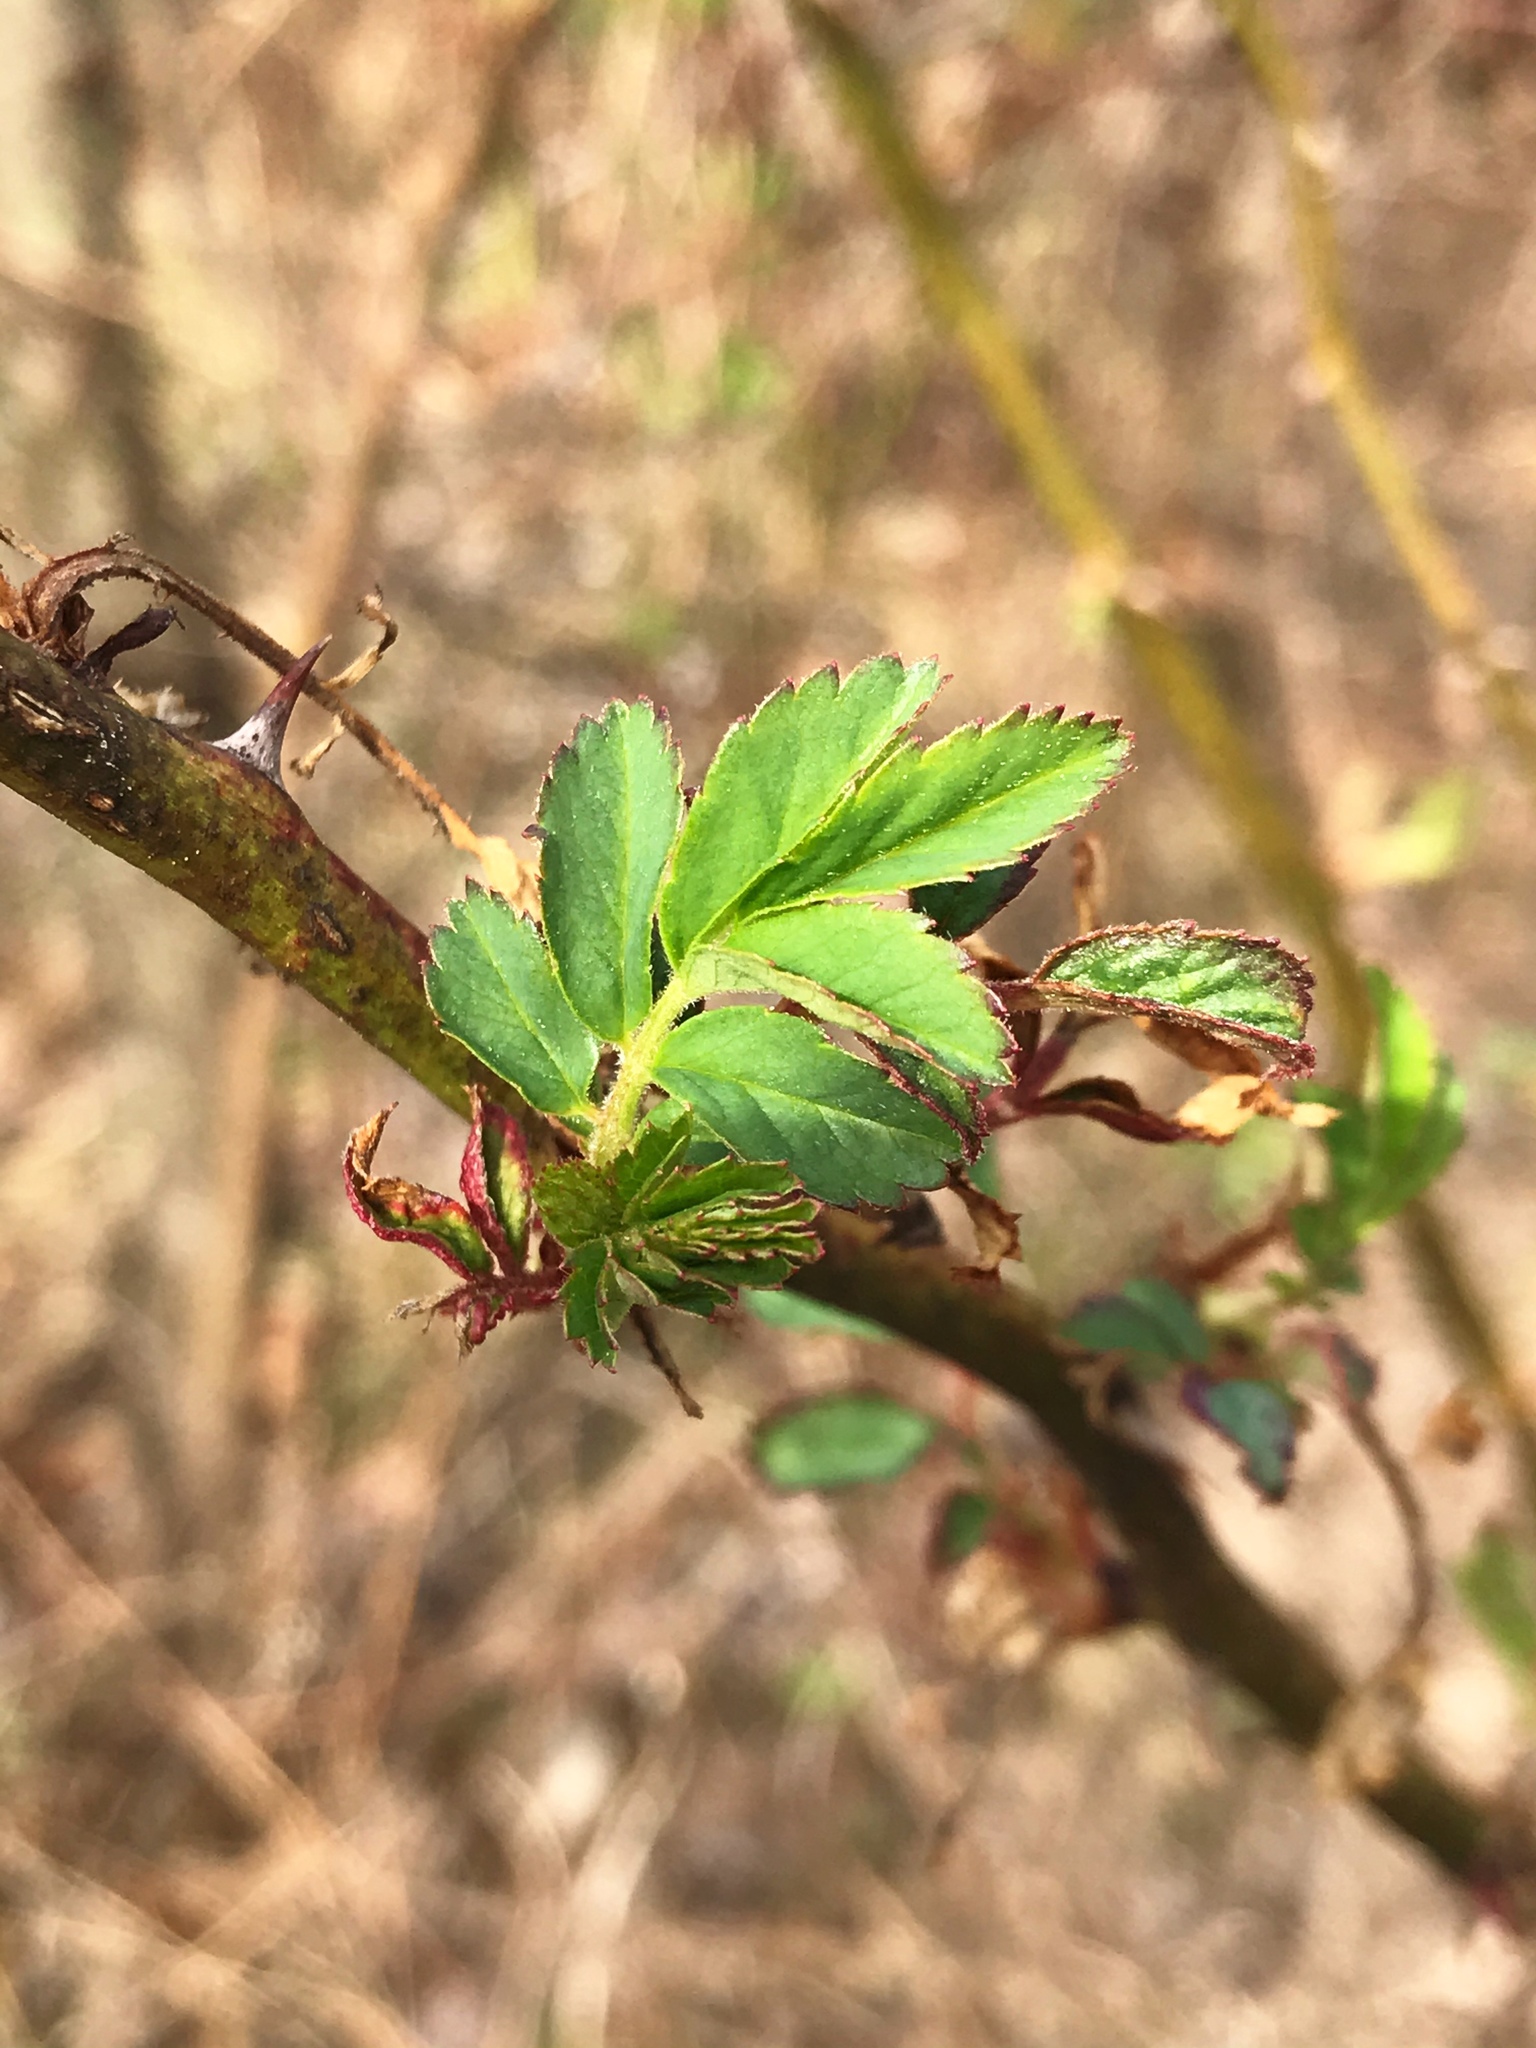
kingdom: Plantae
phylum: Tracheophyta
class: Magnoliopsida
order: Rosales
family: Rosaceae
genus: Rosa
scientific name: Rosa multiflora
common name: Multiflora rose
